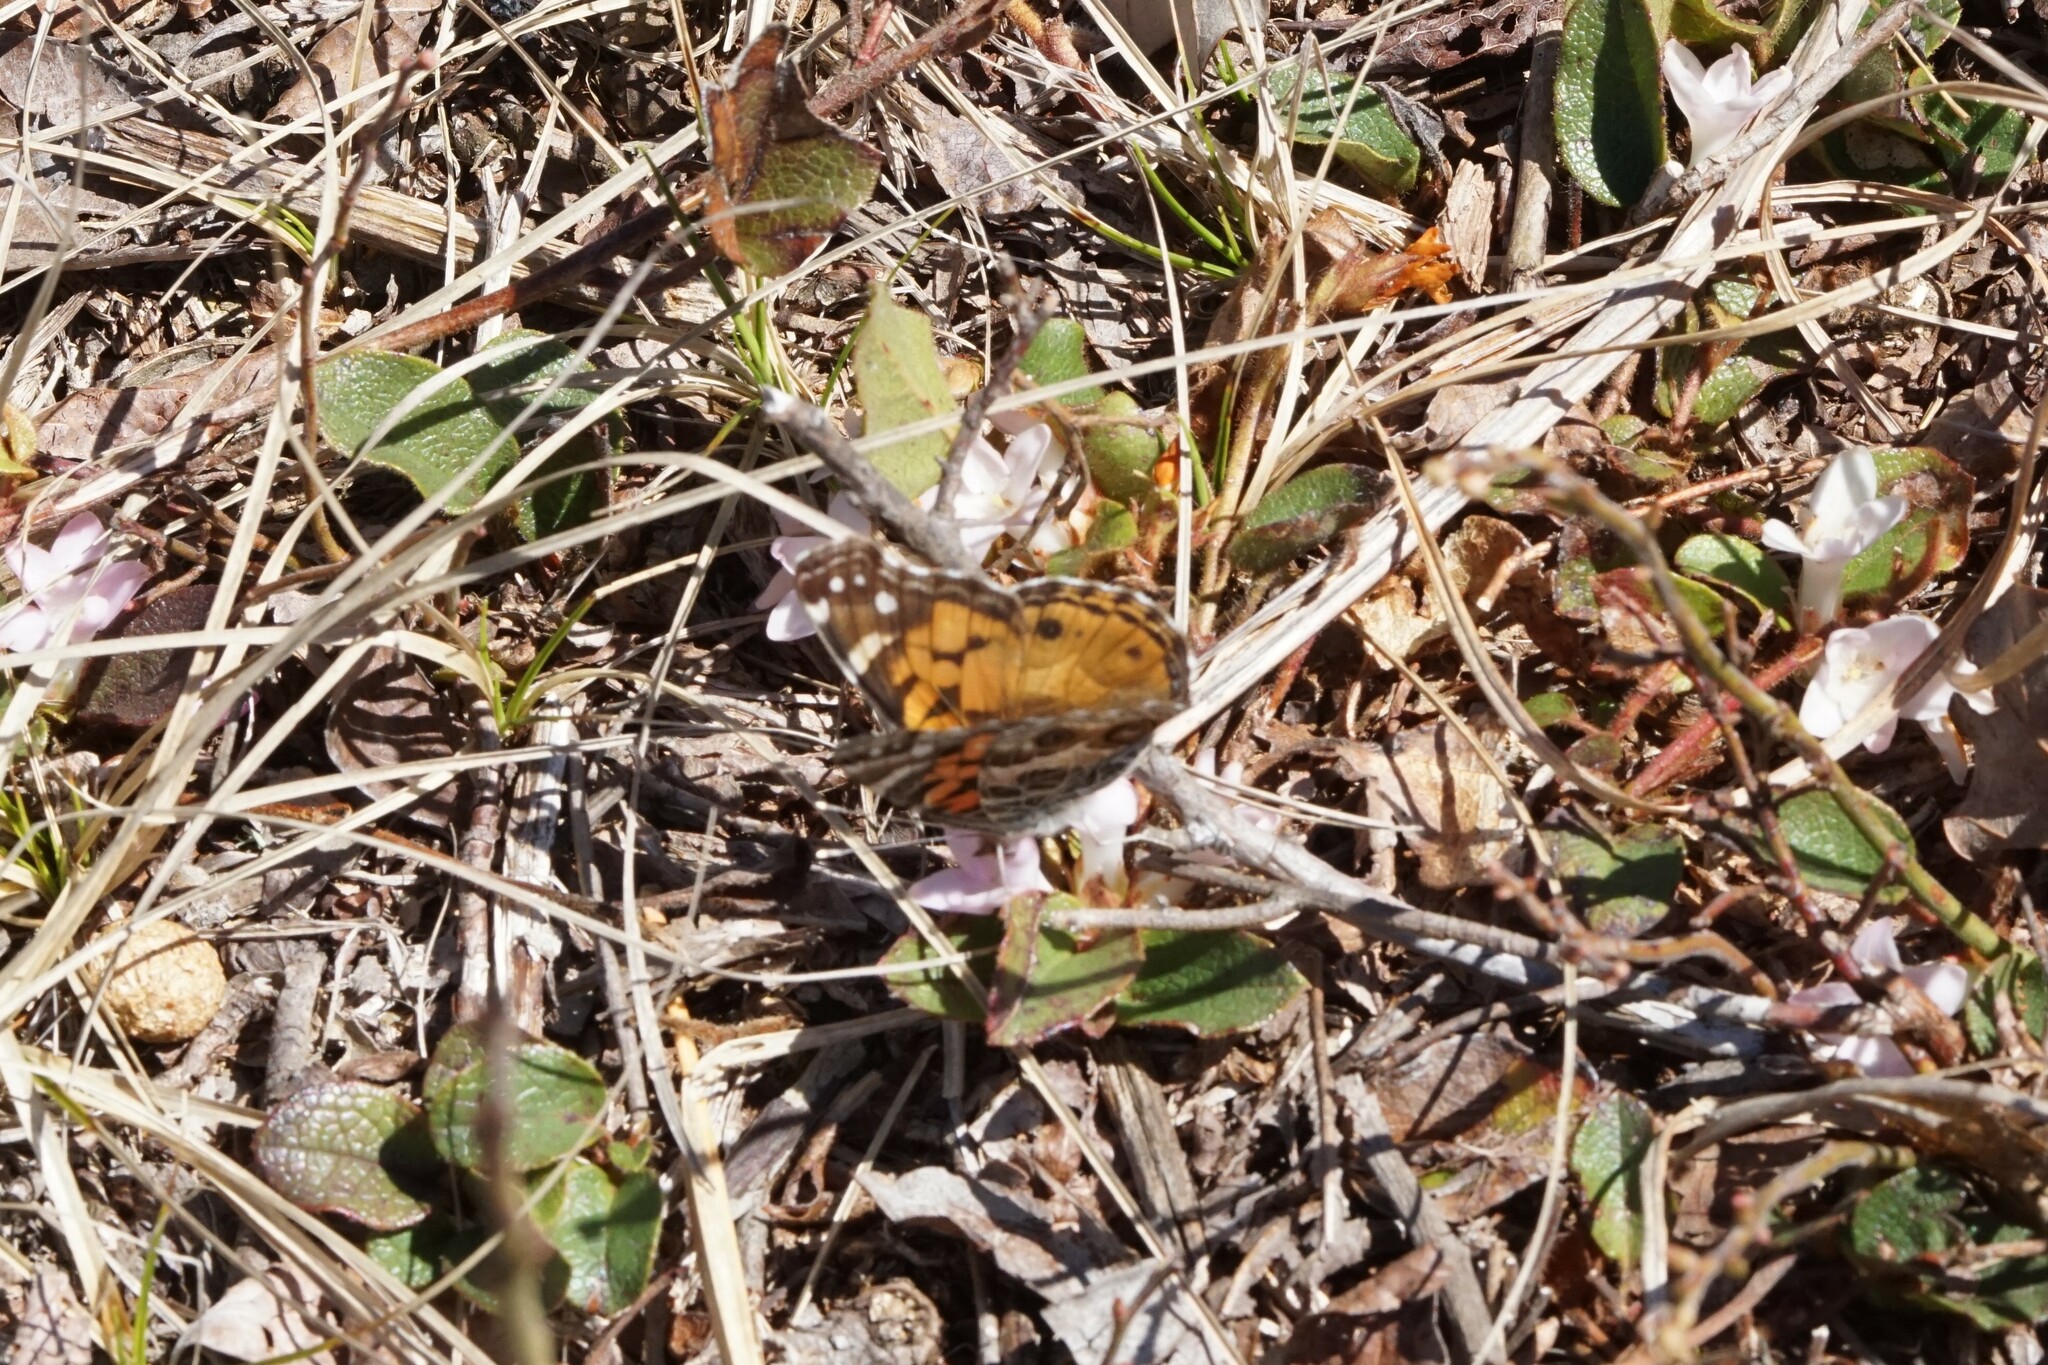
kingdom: Animalia
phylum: Arthropoda
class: Insecta
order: Lepidoptera
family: Nymphalidae
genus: Vanessa
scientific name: Vanessa virginiensis
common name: American lady
